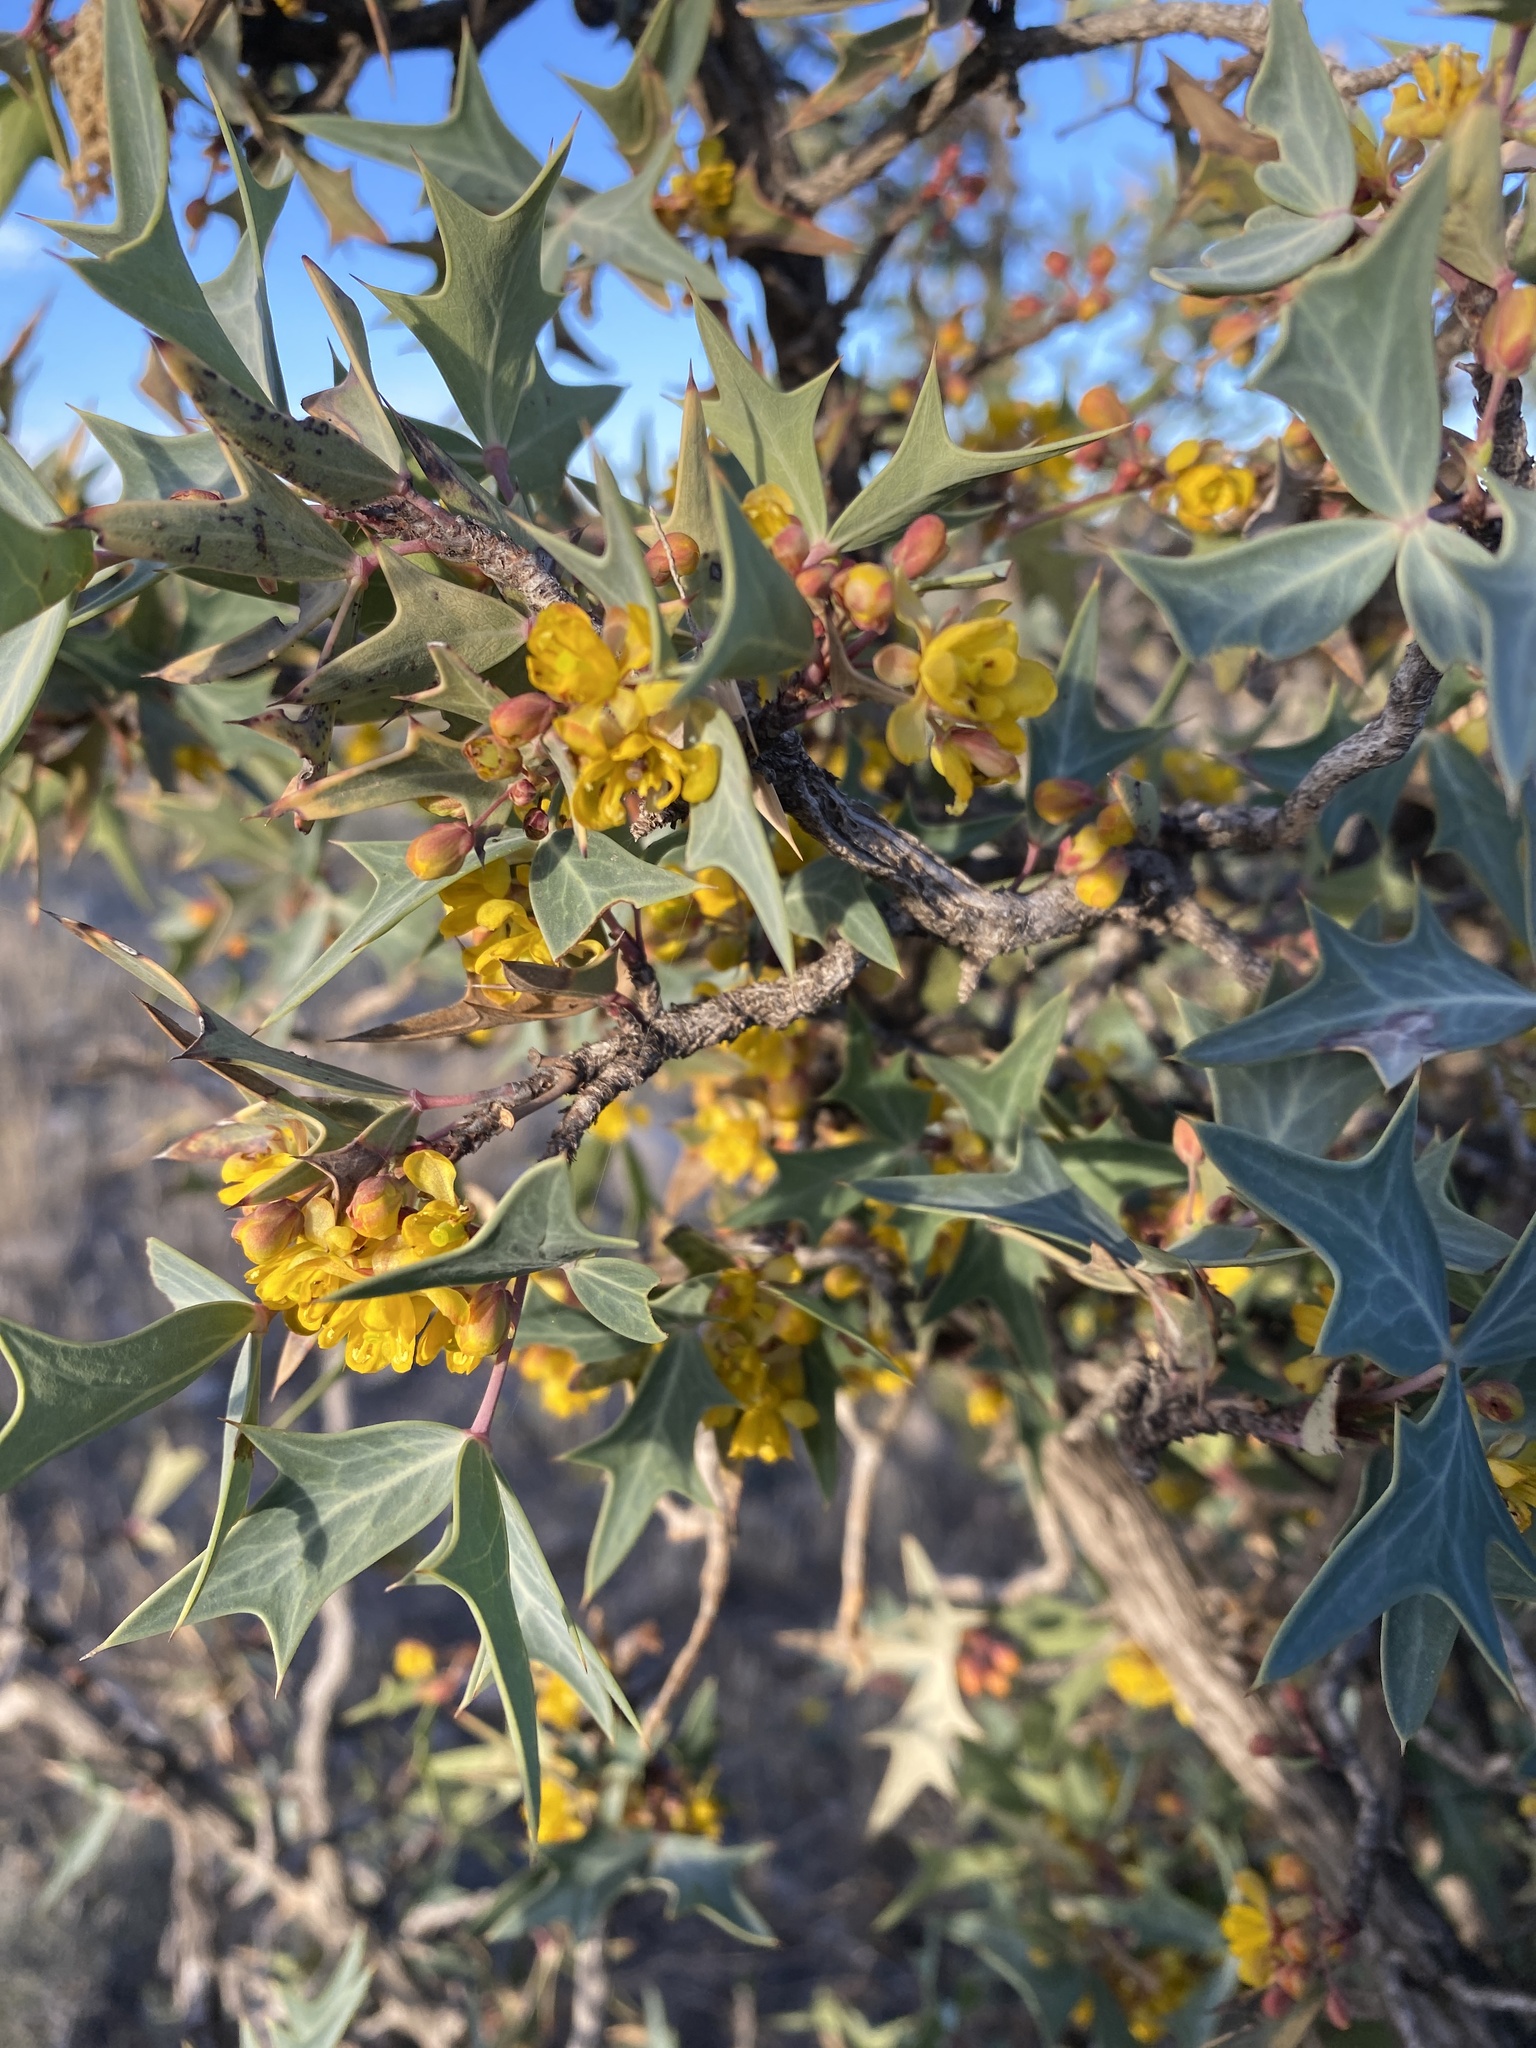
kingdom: Plantae
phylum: Tracheophyta
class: Magnoliopsida
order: Ranunculales
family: Berberidaceae
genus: Alloberberis
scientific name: Alloberberis trifoliolata
